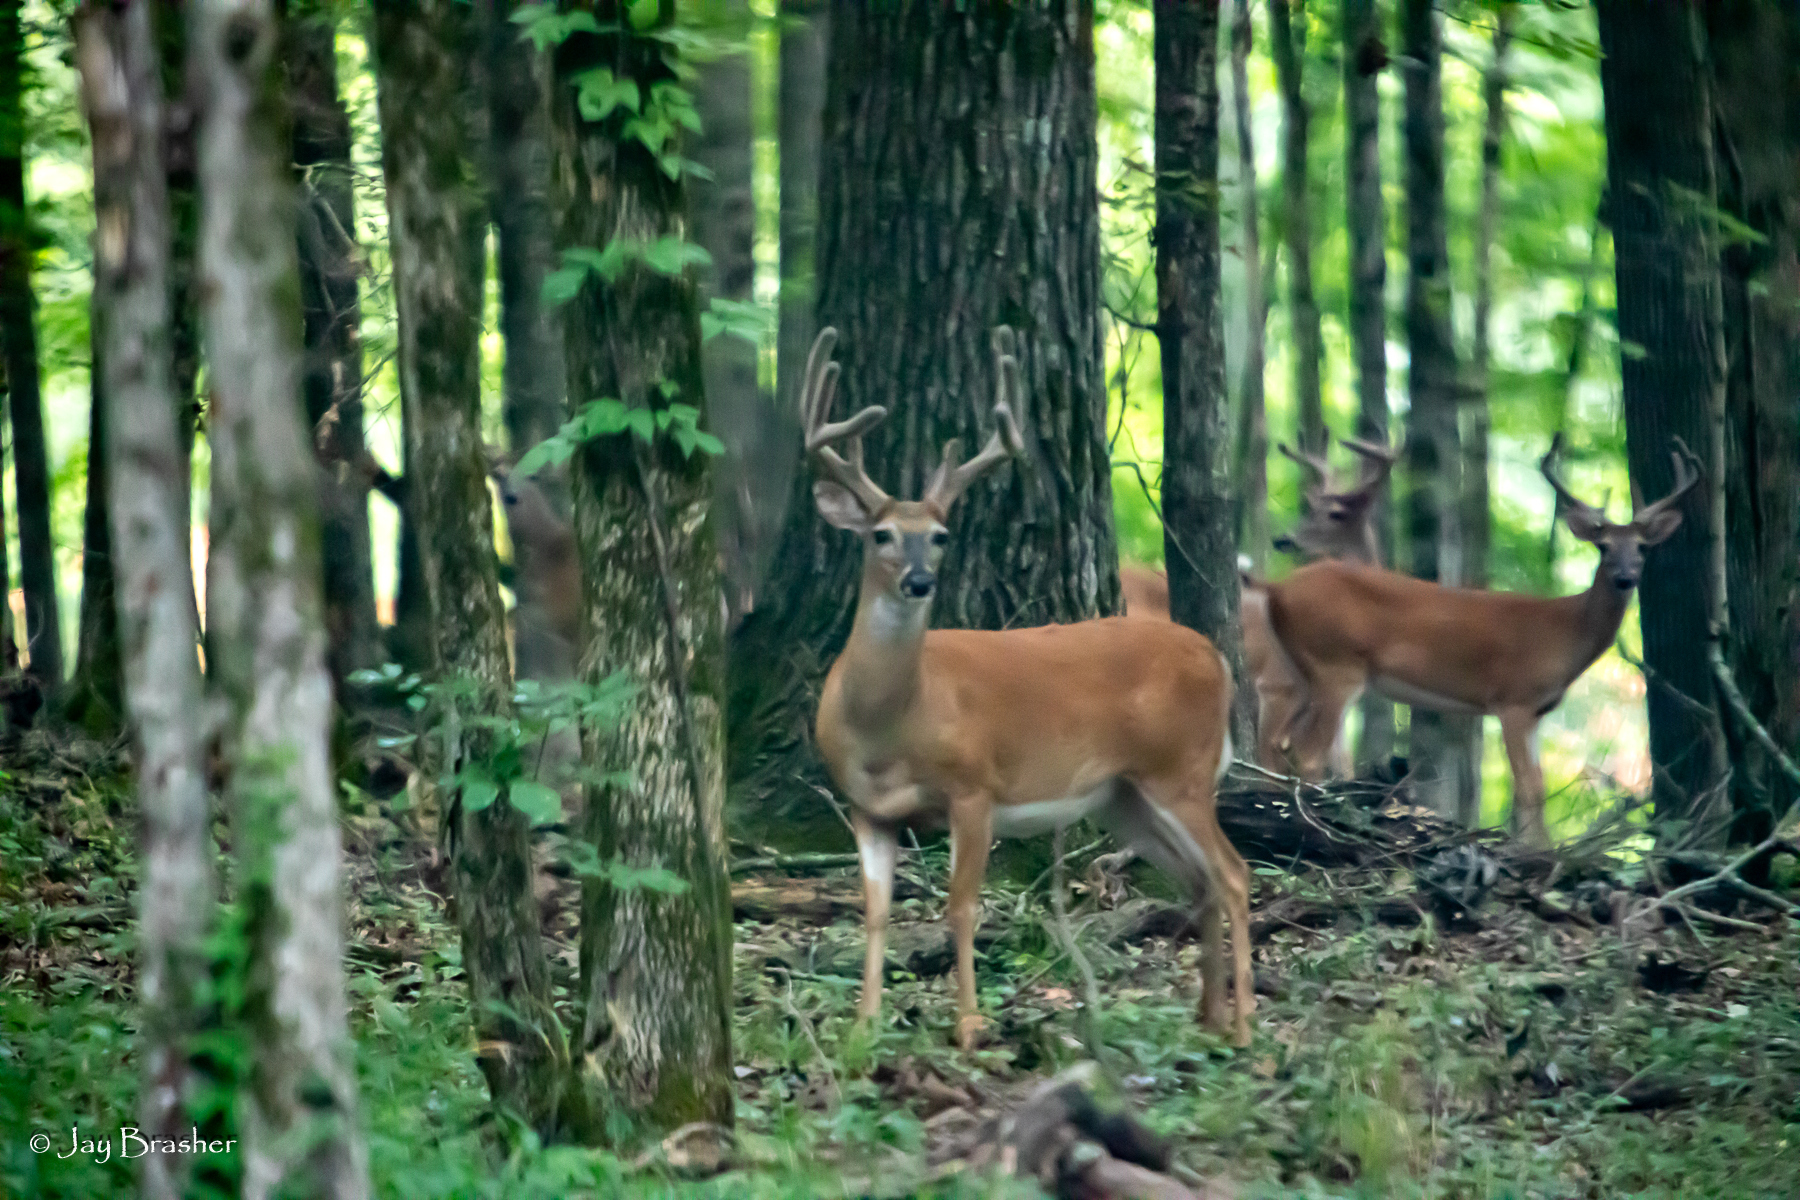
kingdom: Animalia
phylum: Chordata
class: Mammalia
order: Artiodactyla
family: Cervidae
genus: Odocoileus
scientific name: Odocoileus virginianus
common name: White-tailed deer
